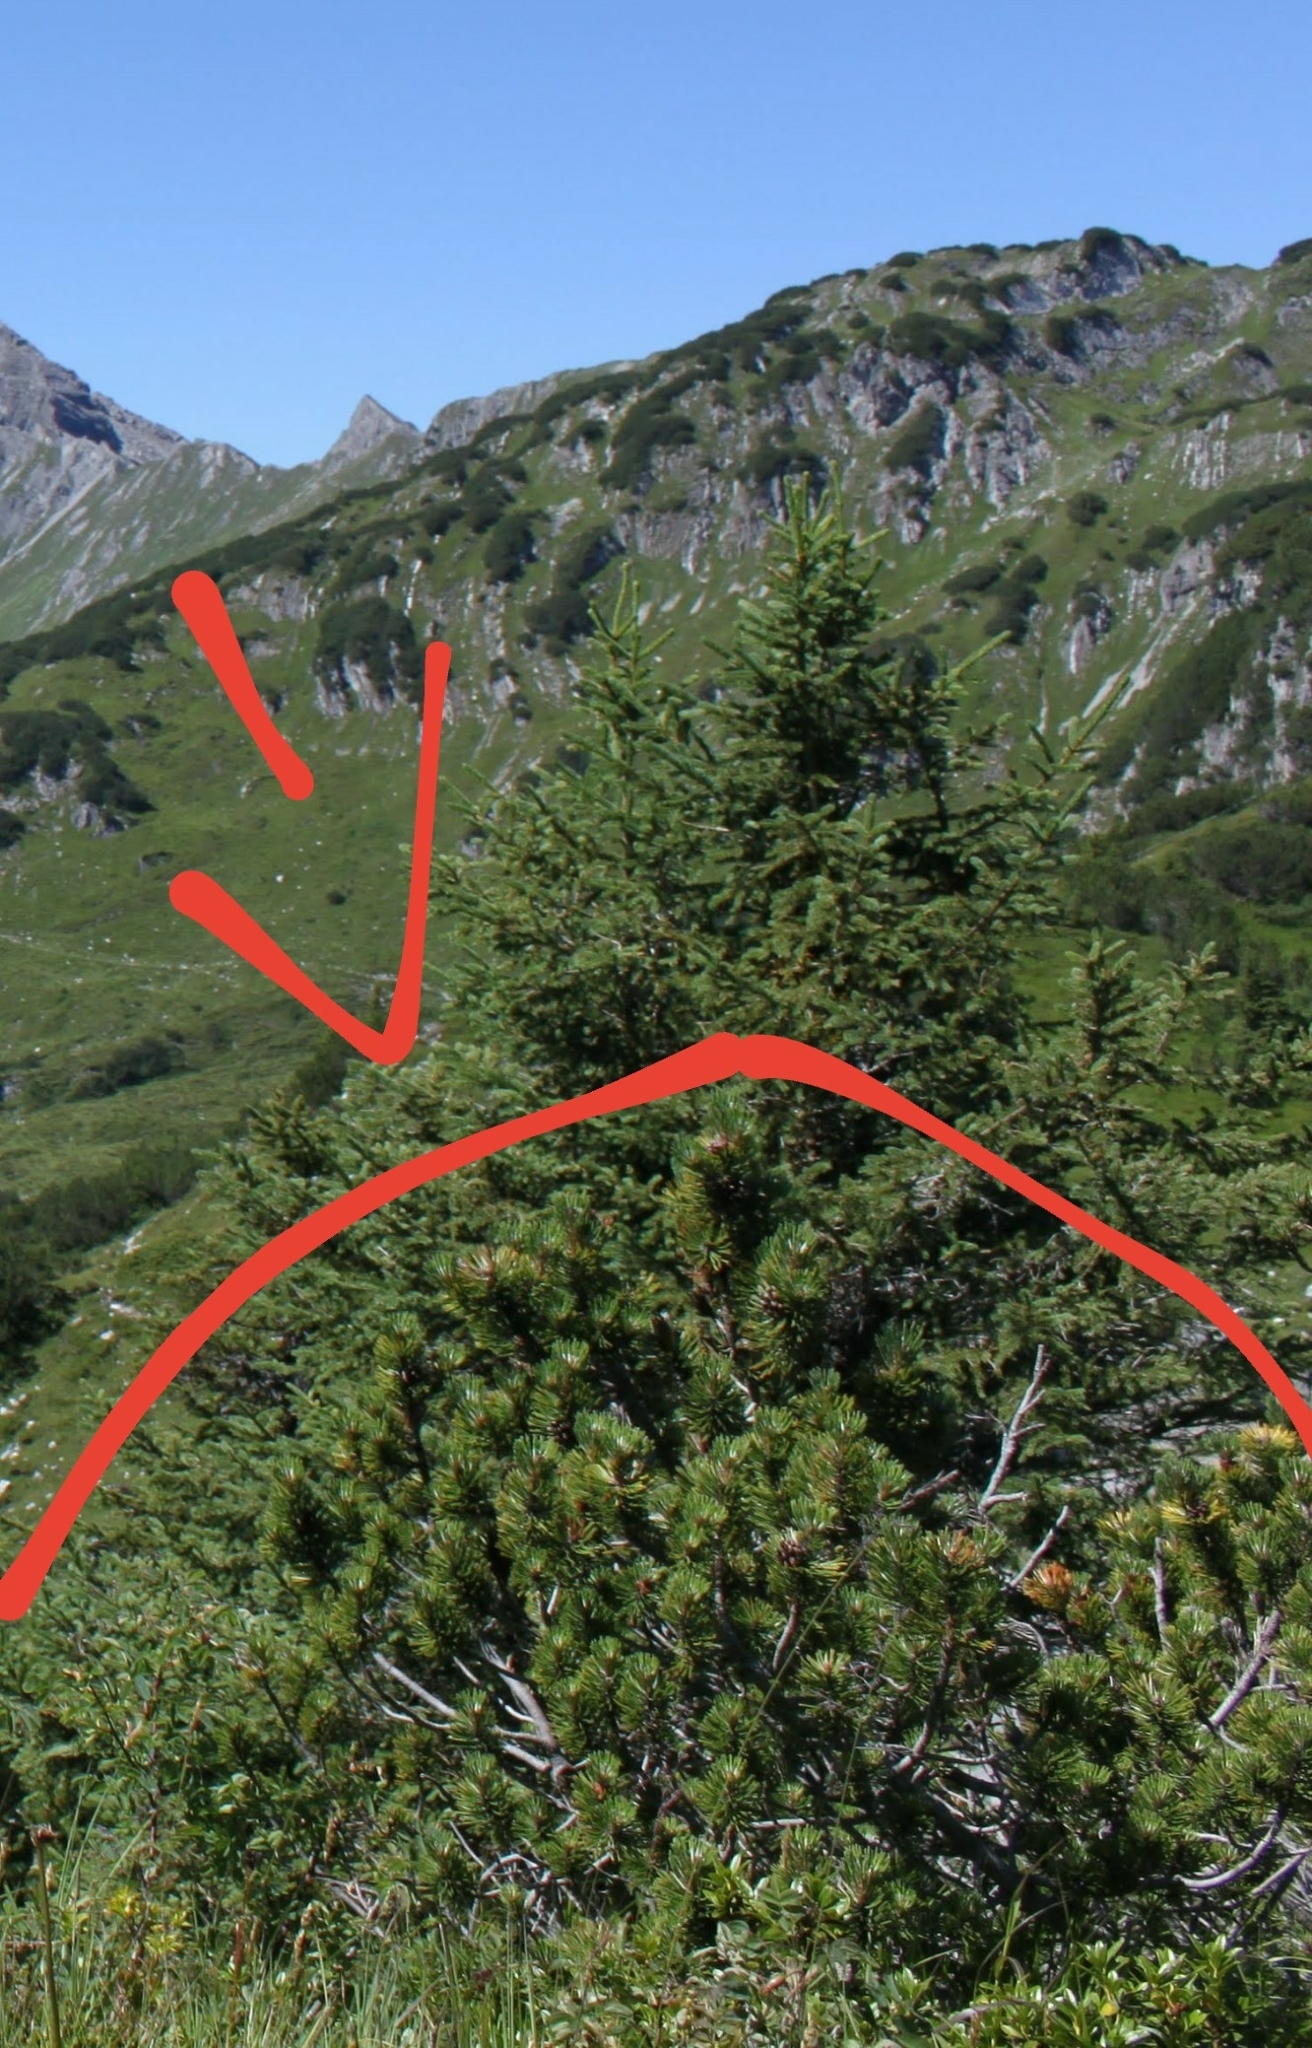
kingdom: Plantae
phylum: Tracheophyta
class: Pinopsida
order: Pinales
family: Pinaceae
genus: Pinus
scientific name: Pinus mugo
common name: Mugo pine
